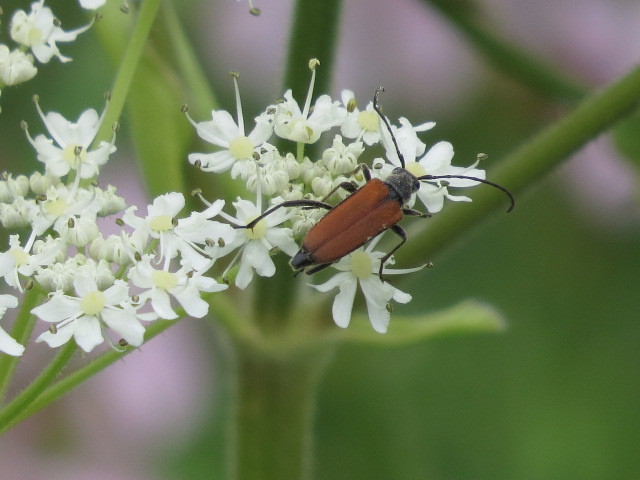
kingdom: Animalia
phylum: Arthropoda
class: Insecta
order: Coleoptera
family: Cerambycidae
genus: Anastrangalia
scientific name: Anastrangalia dubia
